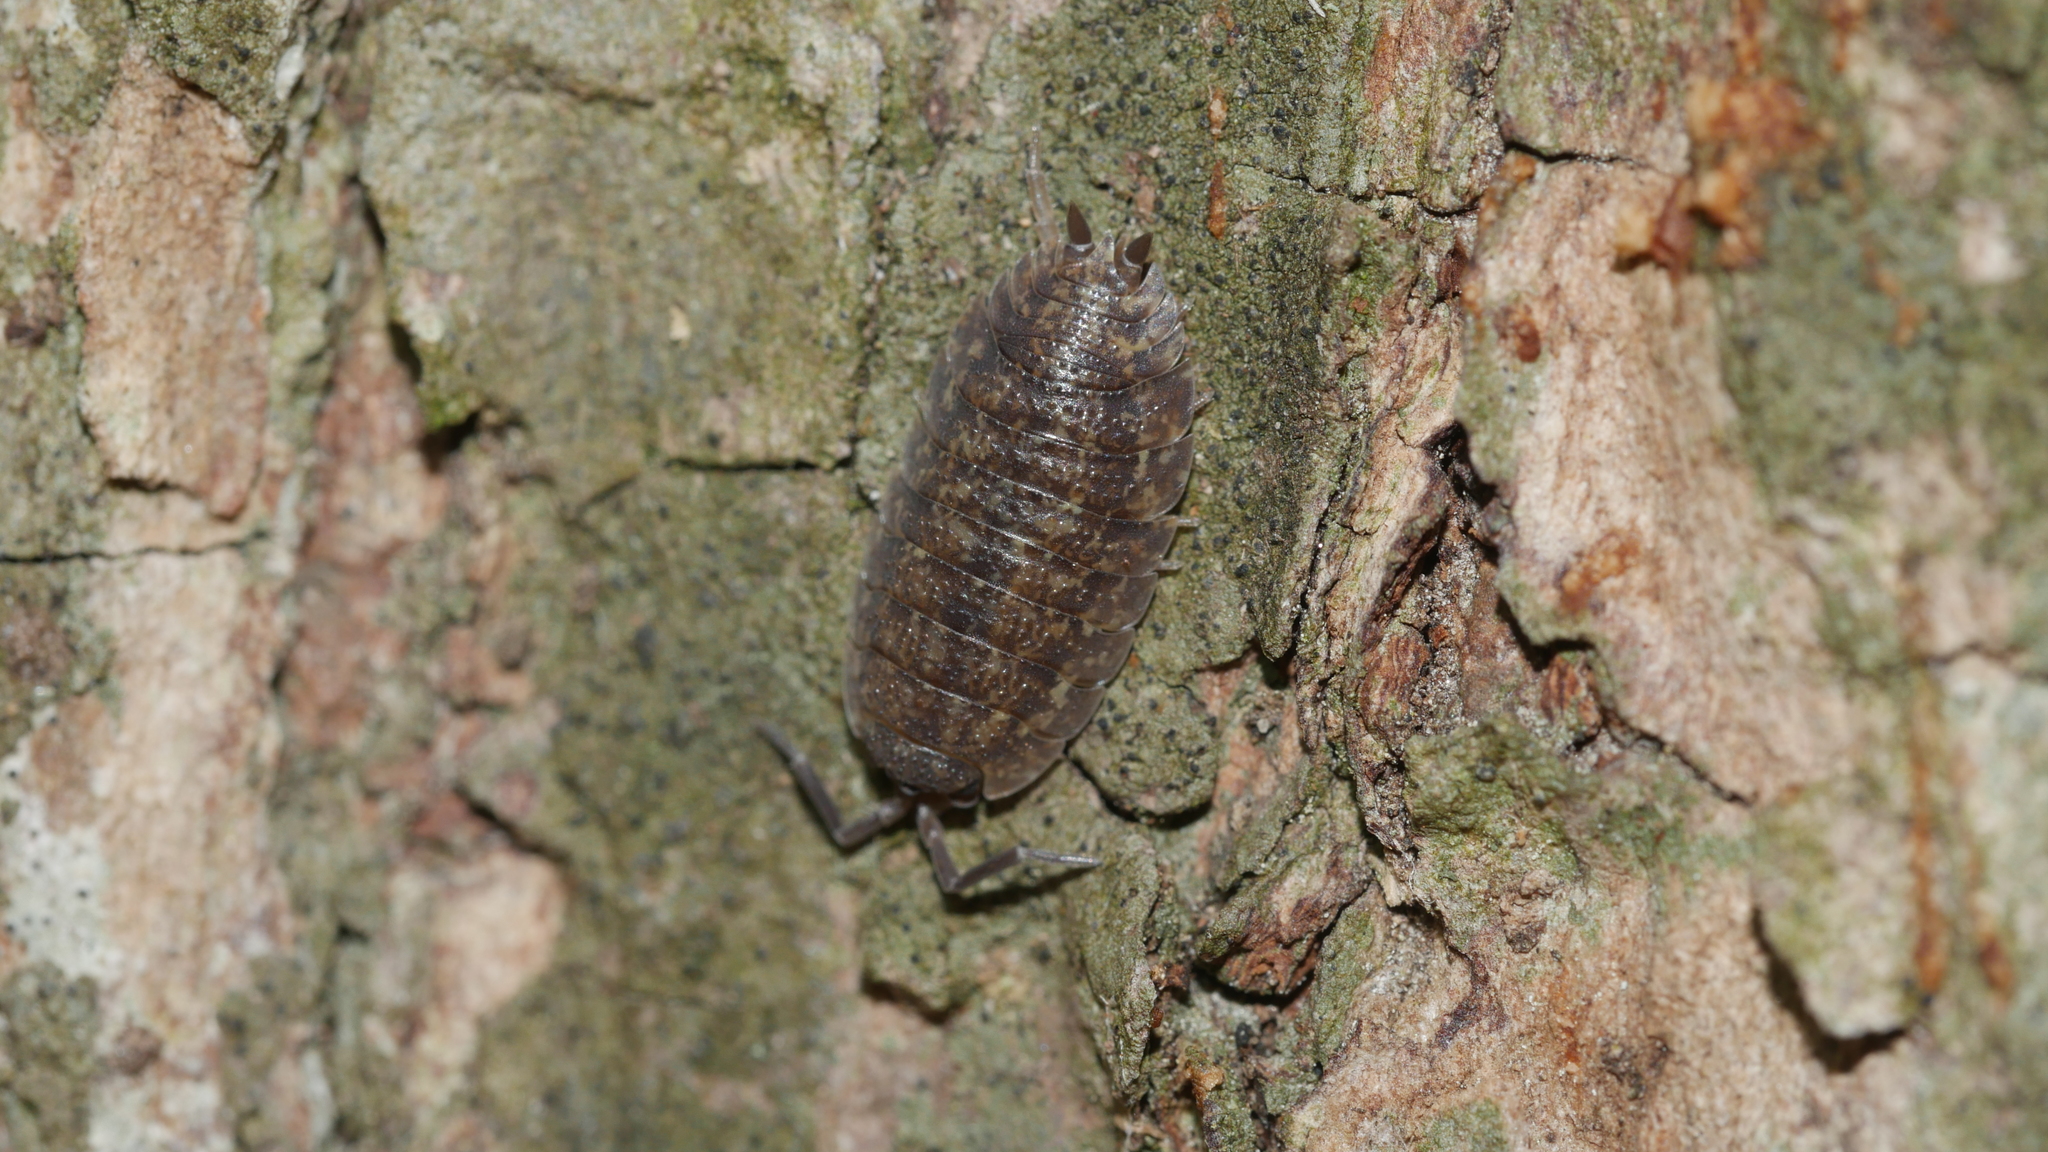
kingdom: Animalia
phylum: Arthropoda
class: Malacostraca
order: Isopoda
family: Porcellionidae
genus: Porcellio
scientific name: Porcellio scaber
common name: Common rough woodlouse
